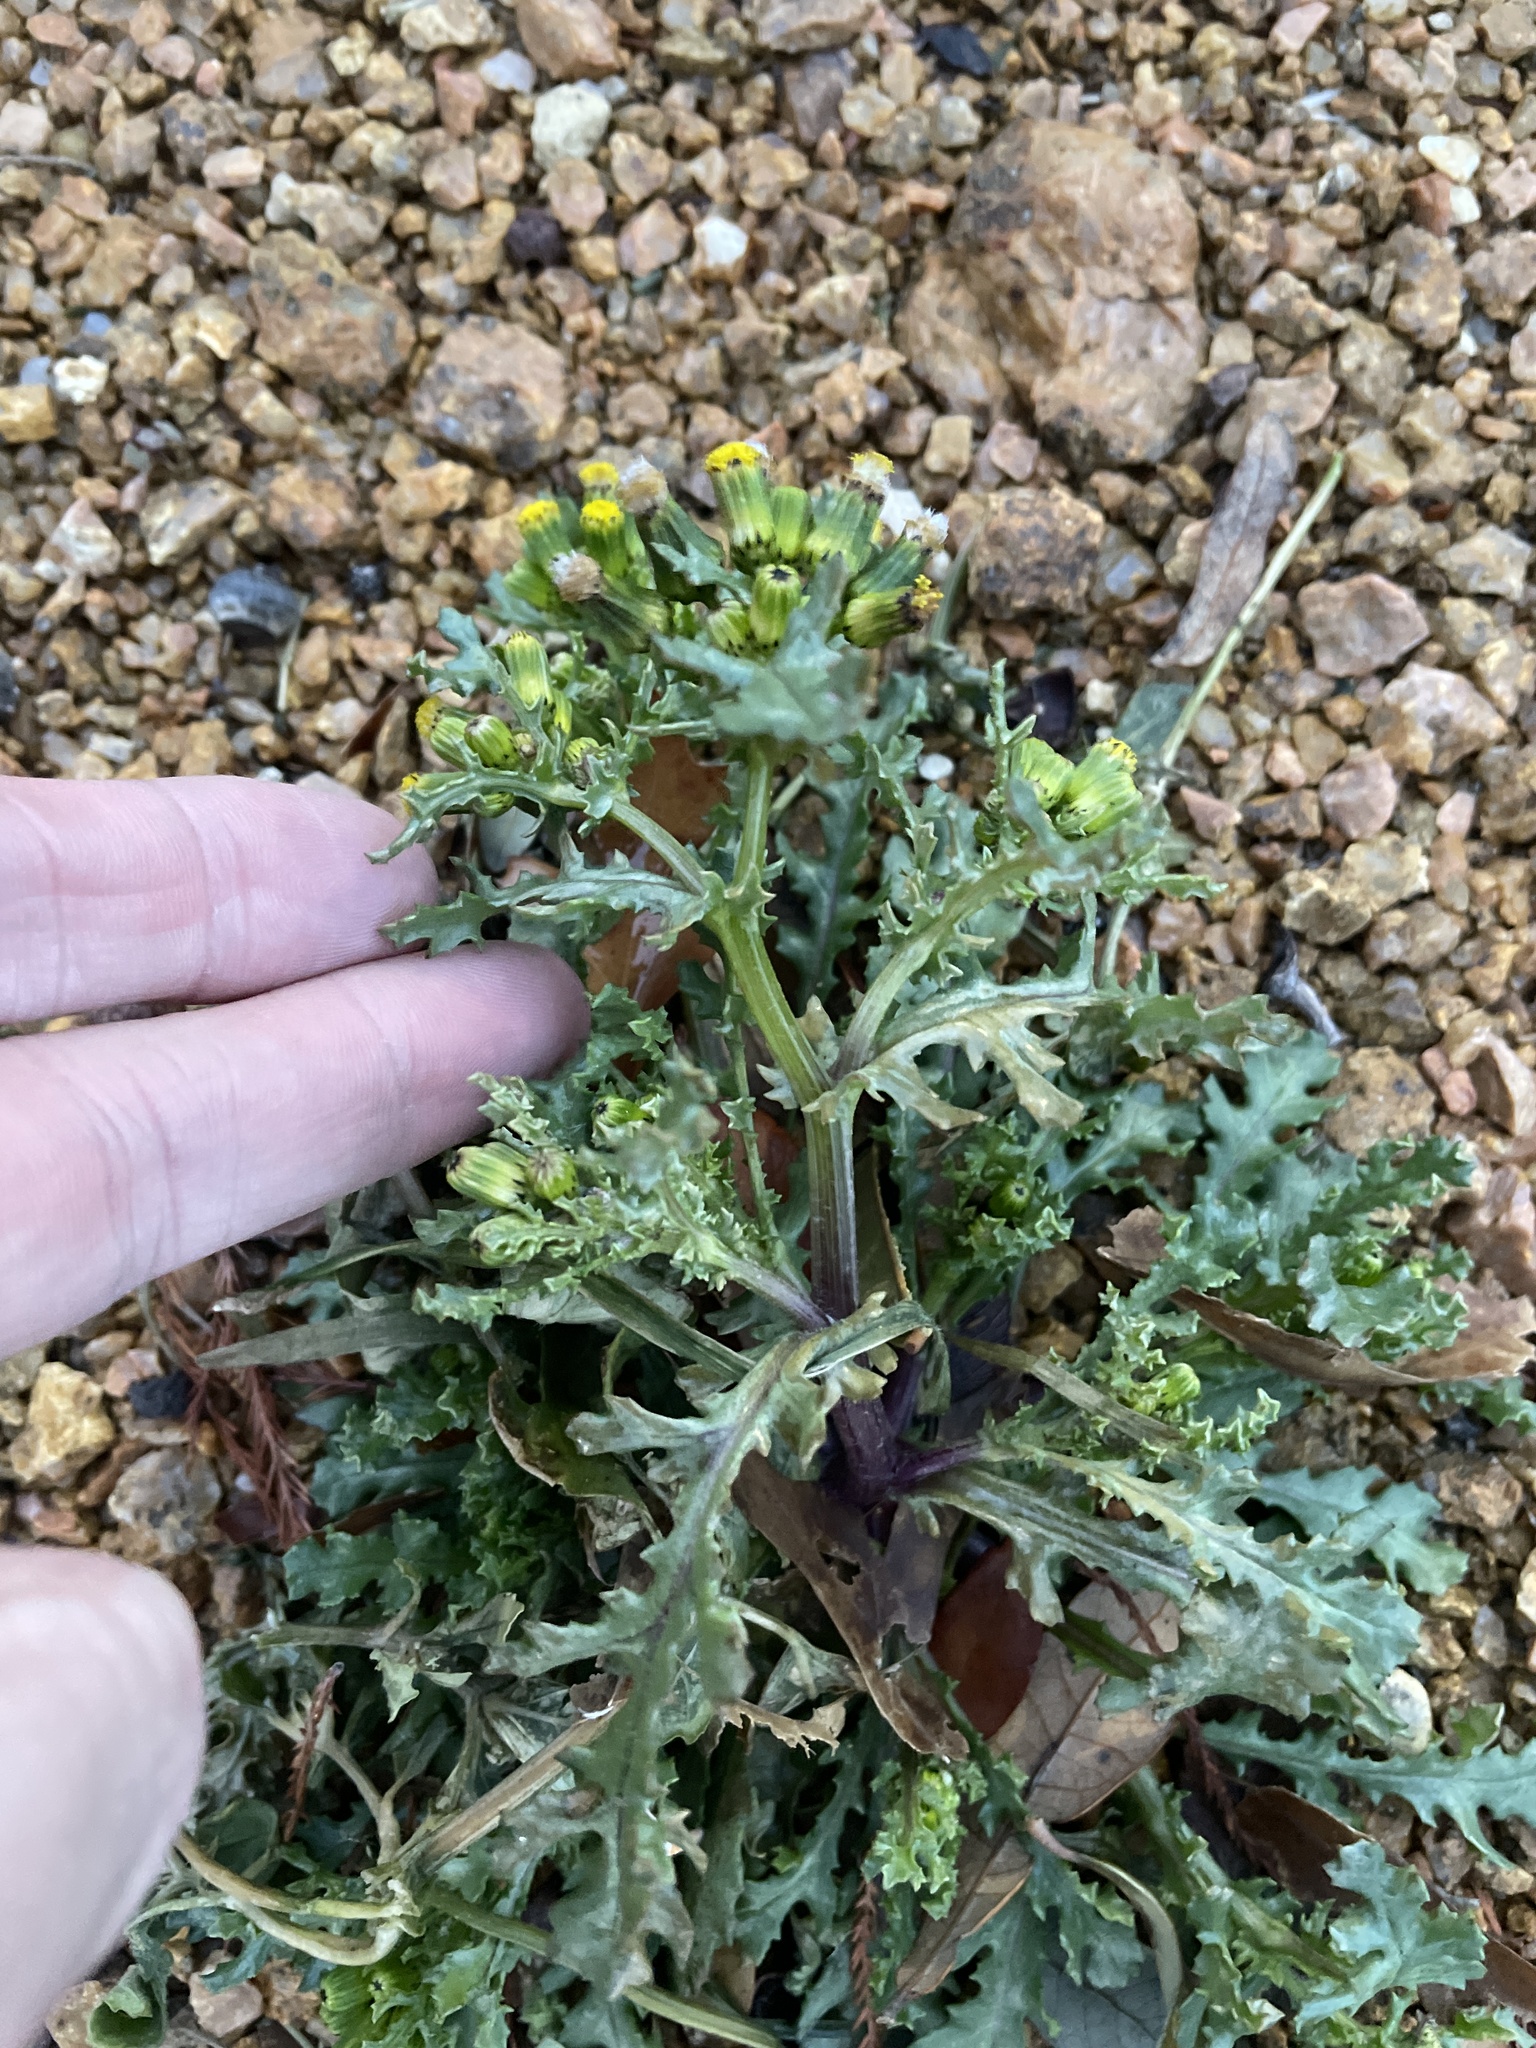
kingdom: Plantae
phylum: Tracheophyta
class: Magnoliopsida
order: Asterales
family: Asteraceae
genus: Senecio
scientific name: Senecio vulgaris
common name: Old-man-in-the-spring
